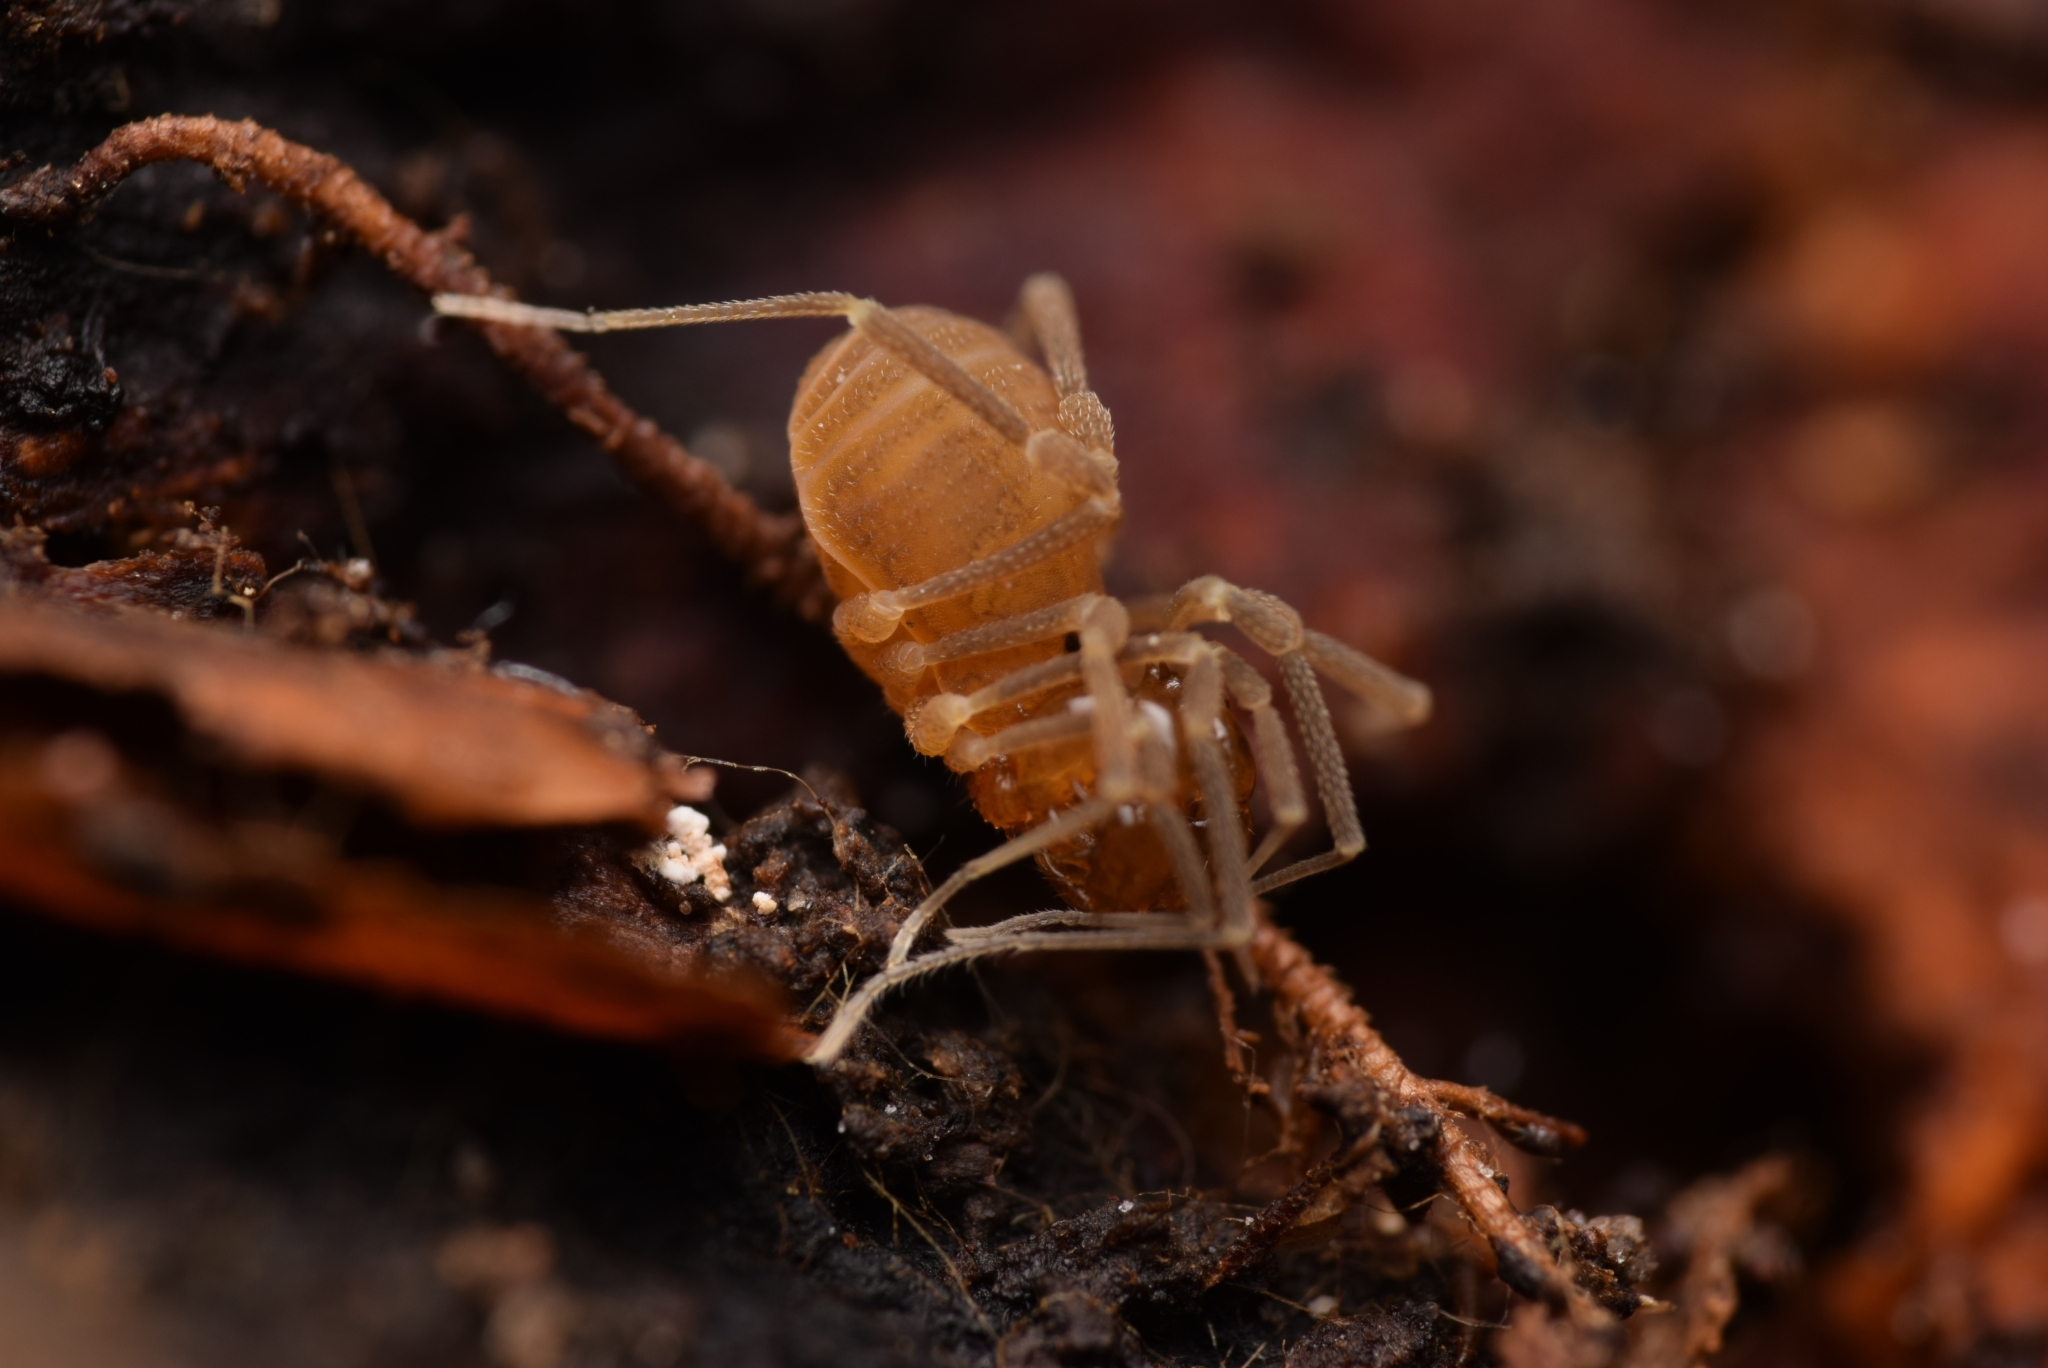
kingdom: Animalia
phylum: Arthropoda
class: Arachnida
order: Opiliones
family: Cladonychiidae
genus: Holoscotolemon
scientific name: Holoscotolemon querilhaci
